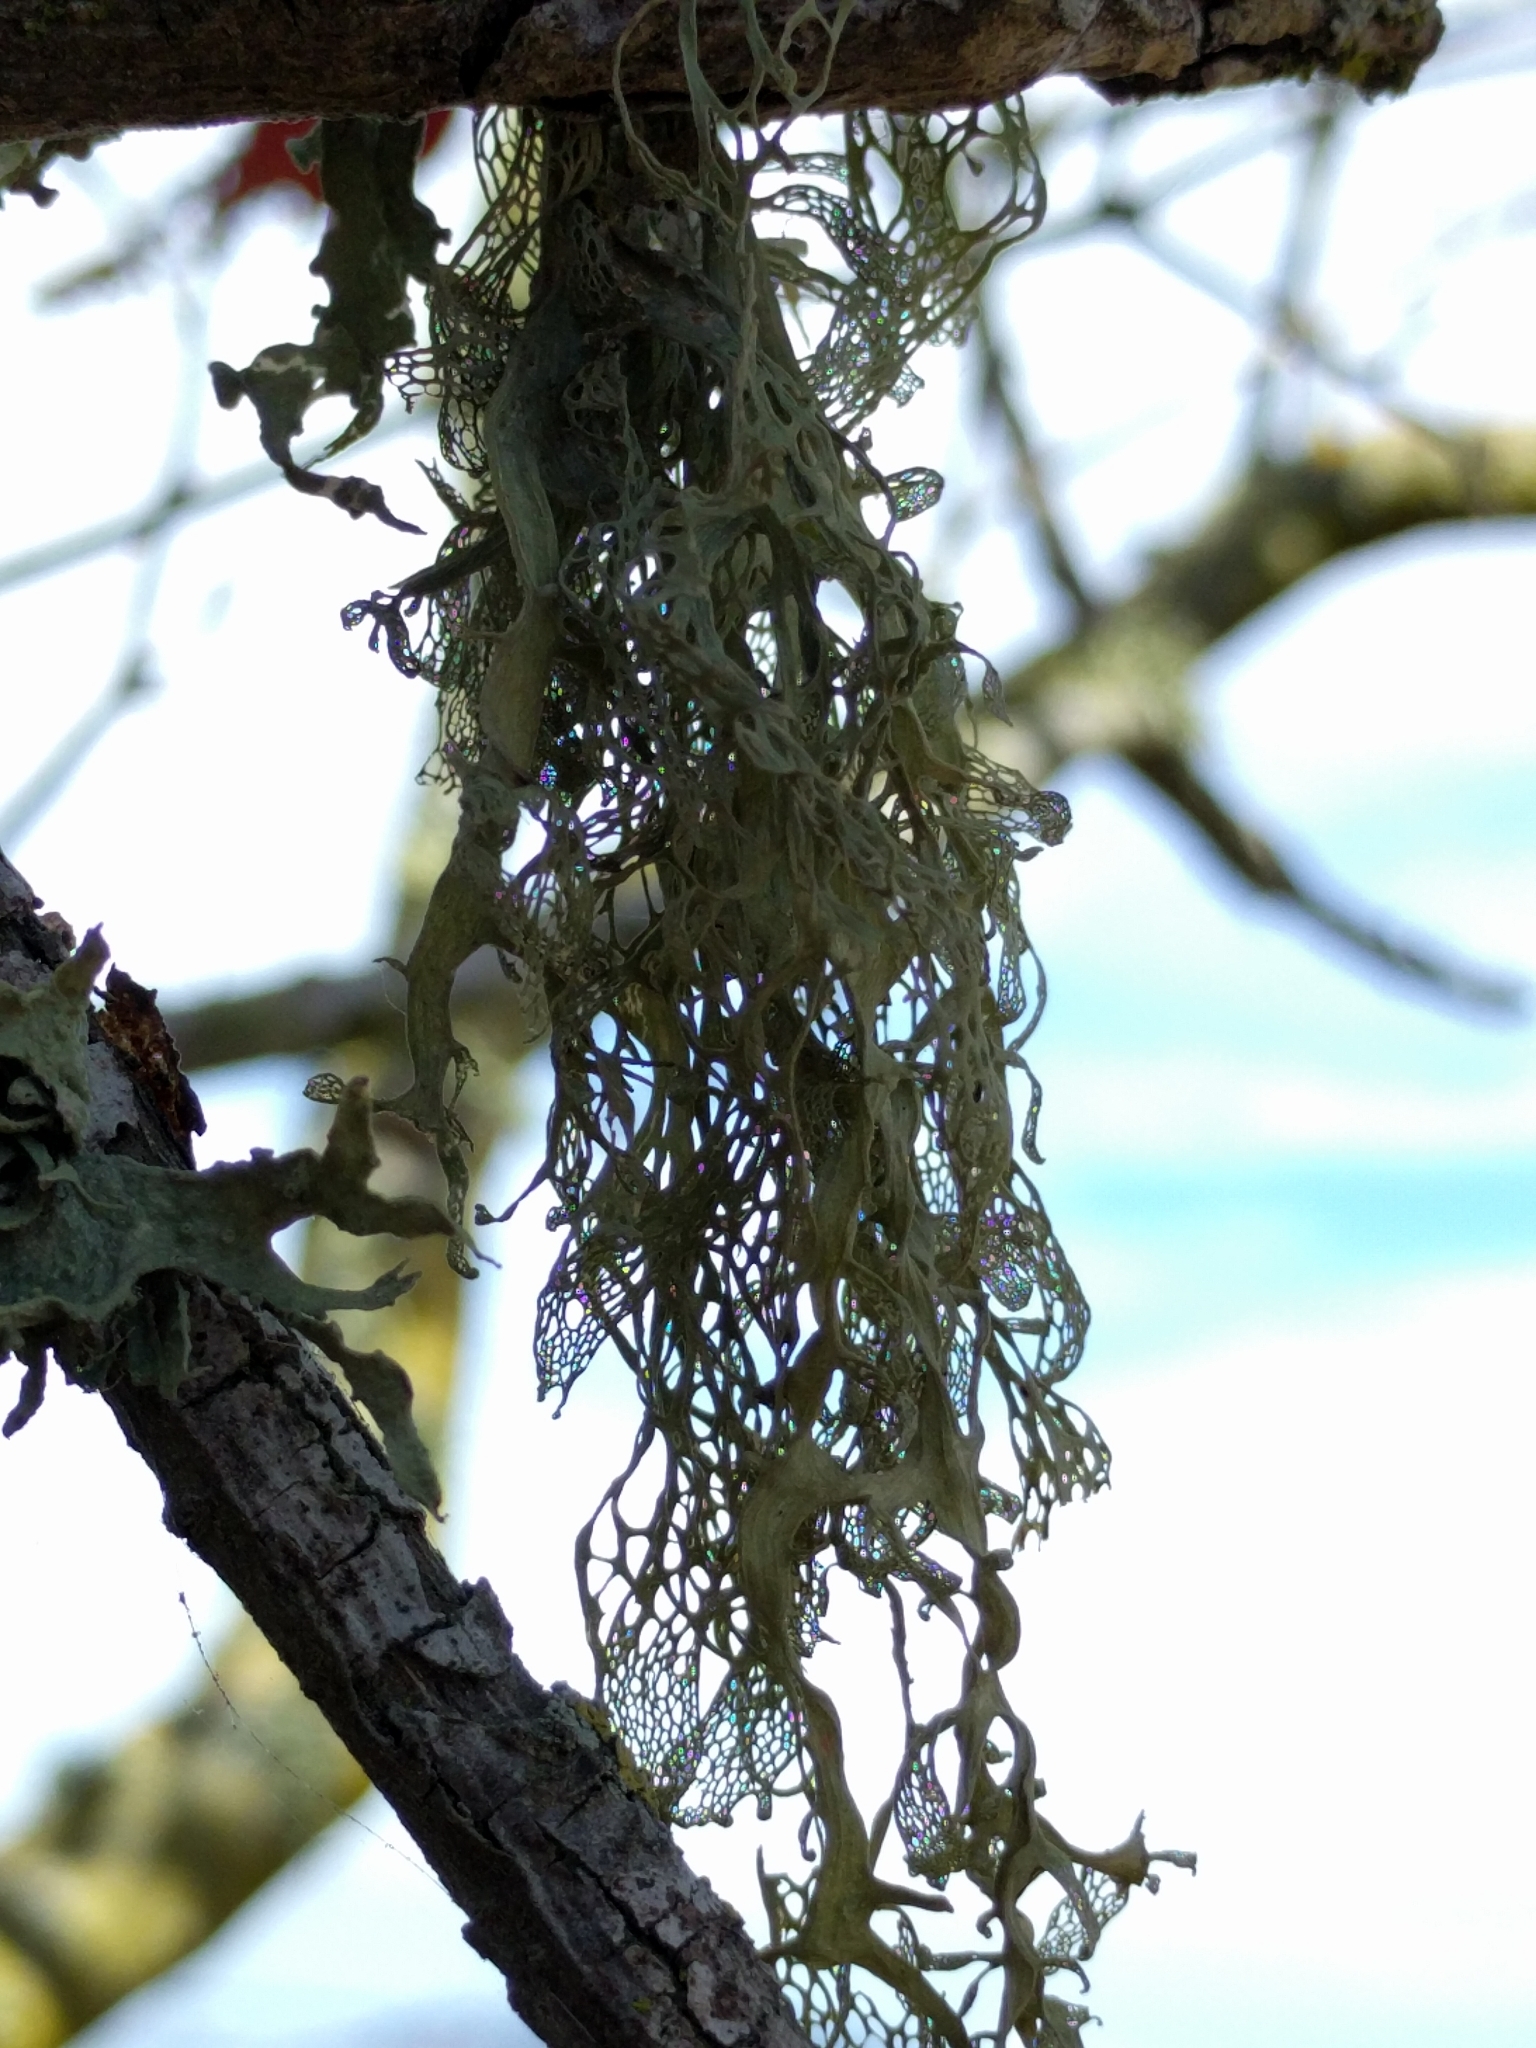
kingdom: Fungi
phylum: Ascomycota
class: Lecanoromycetes
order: Lecanorales
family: Ramalinaceae
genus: Ramalina
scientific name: Ramalina menziesii
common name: Lace lichen
